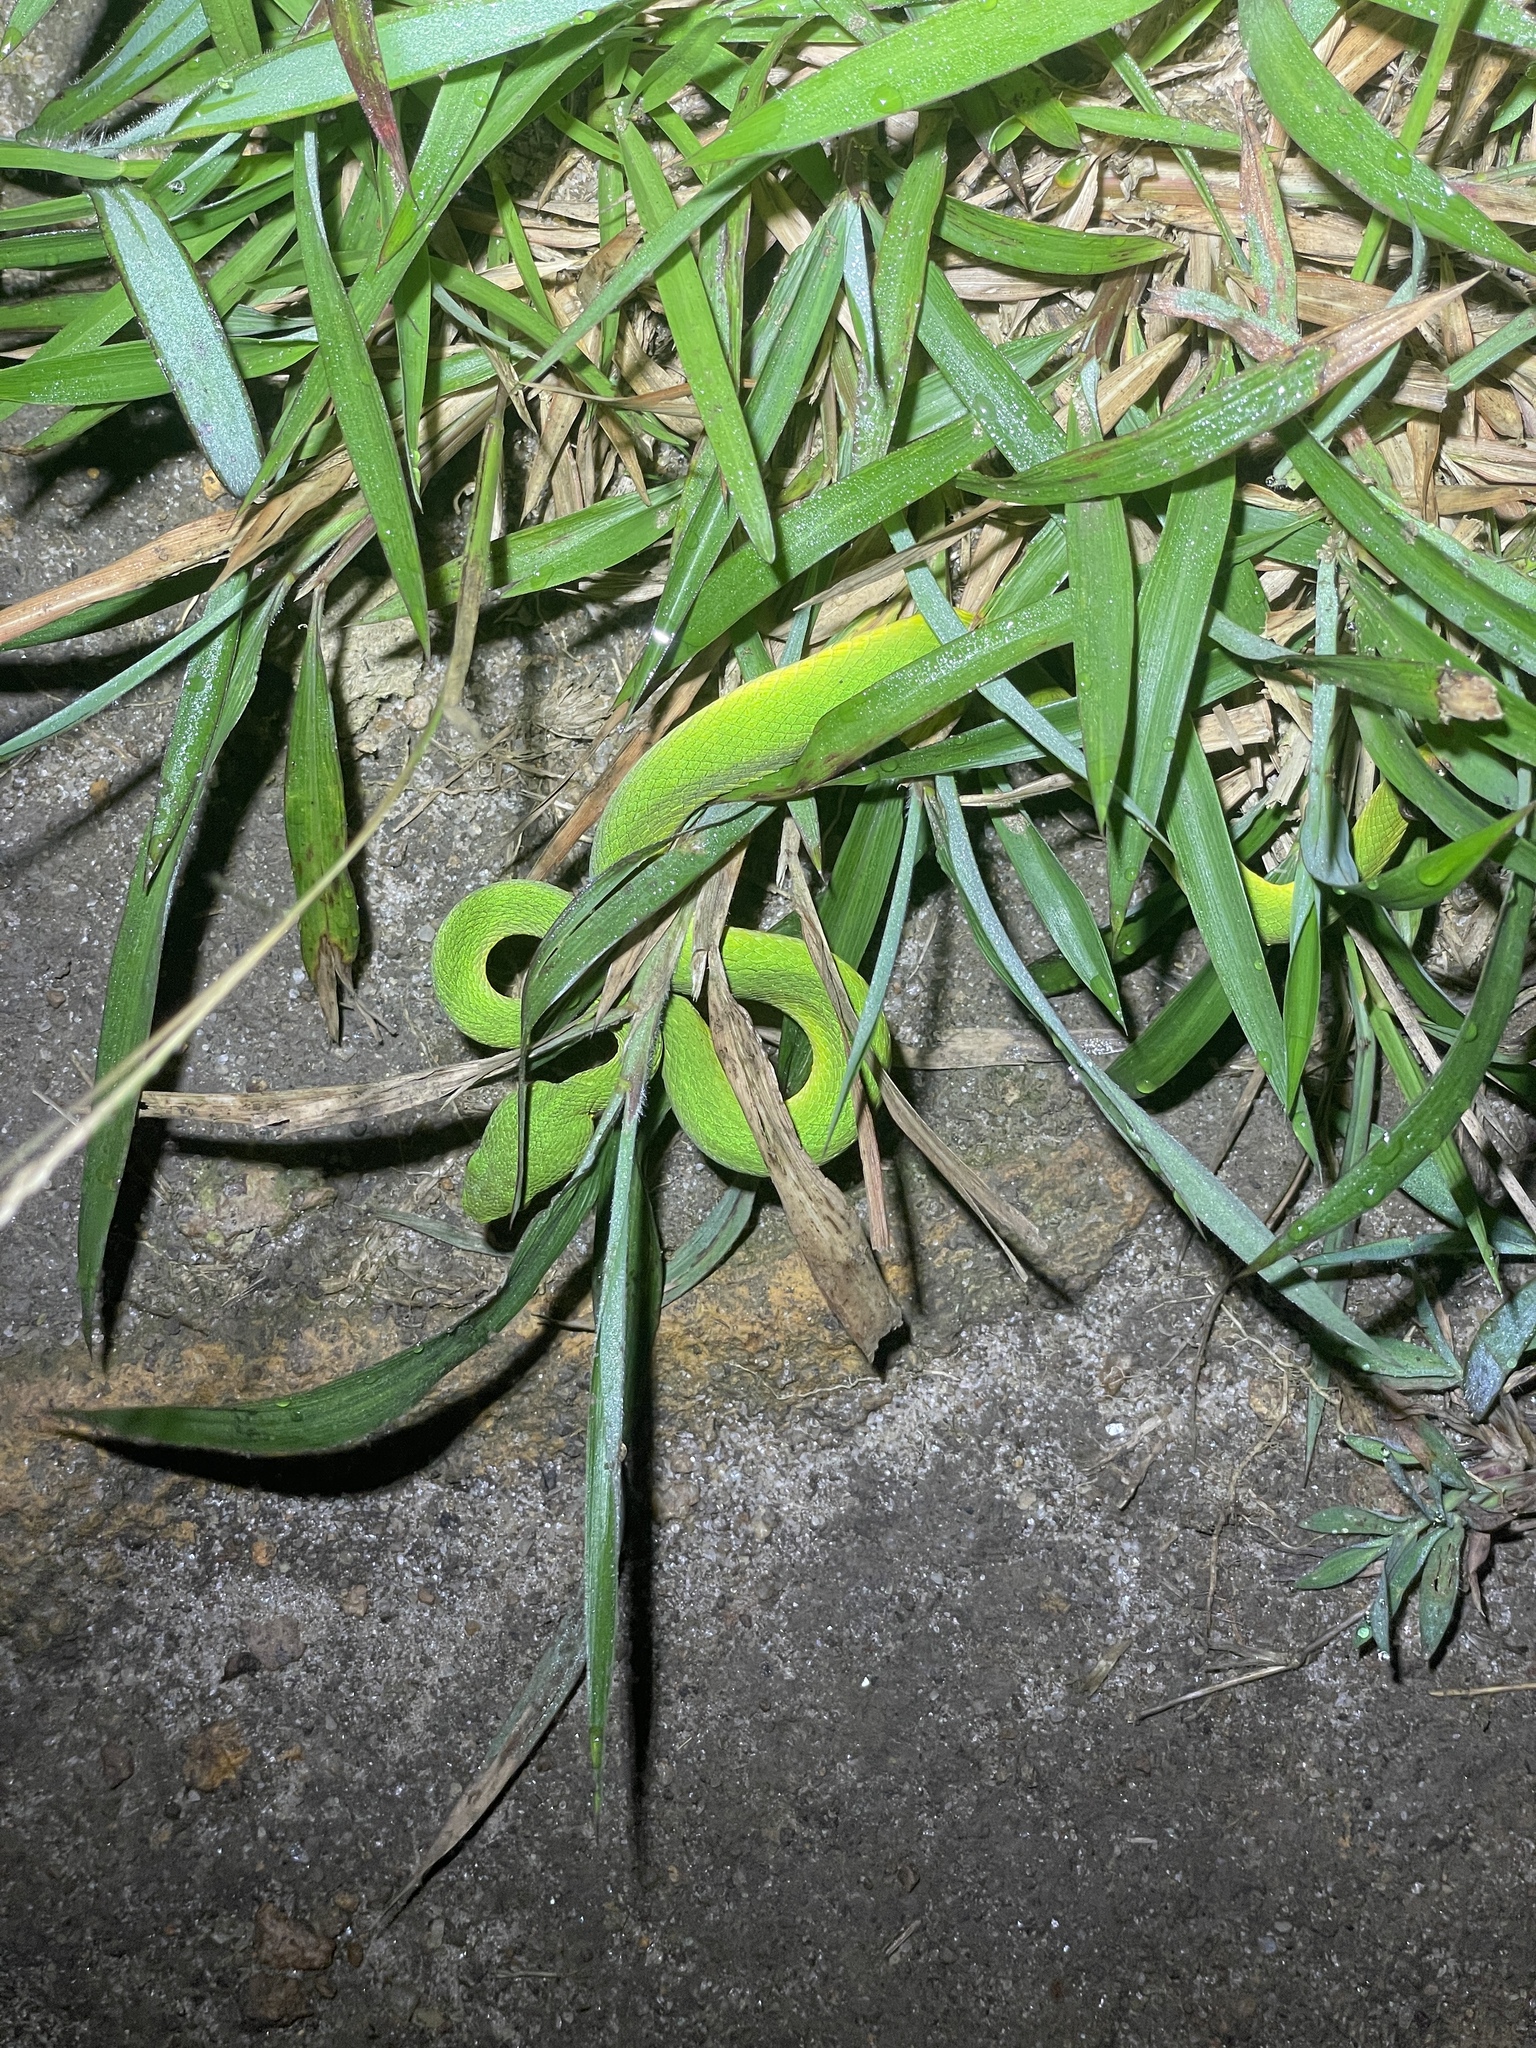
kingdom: Animalia
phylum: Chordata
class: Squamata
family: Viperidae
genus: Trimeresurus
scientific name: Trimeresurus albolabris
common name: White-lipped pitviper
